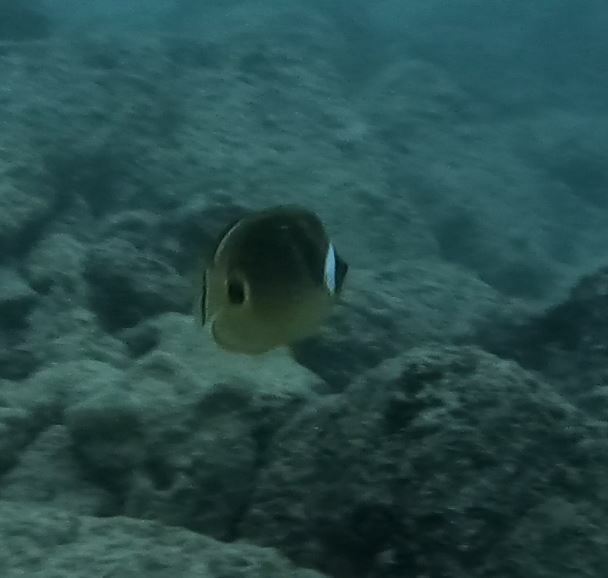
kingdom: Animalia
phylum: Chordata
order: Perciformes
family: Chaetodontidae
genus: Chaetodon
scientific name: Chaetodon lunula
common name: Raccoon butterflyfish
